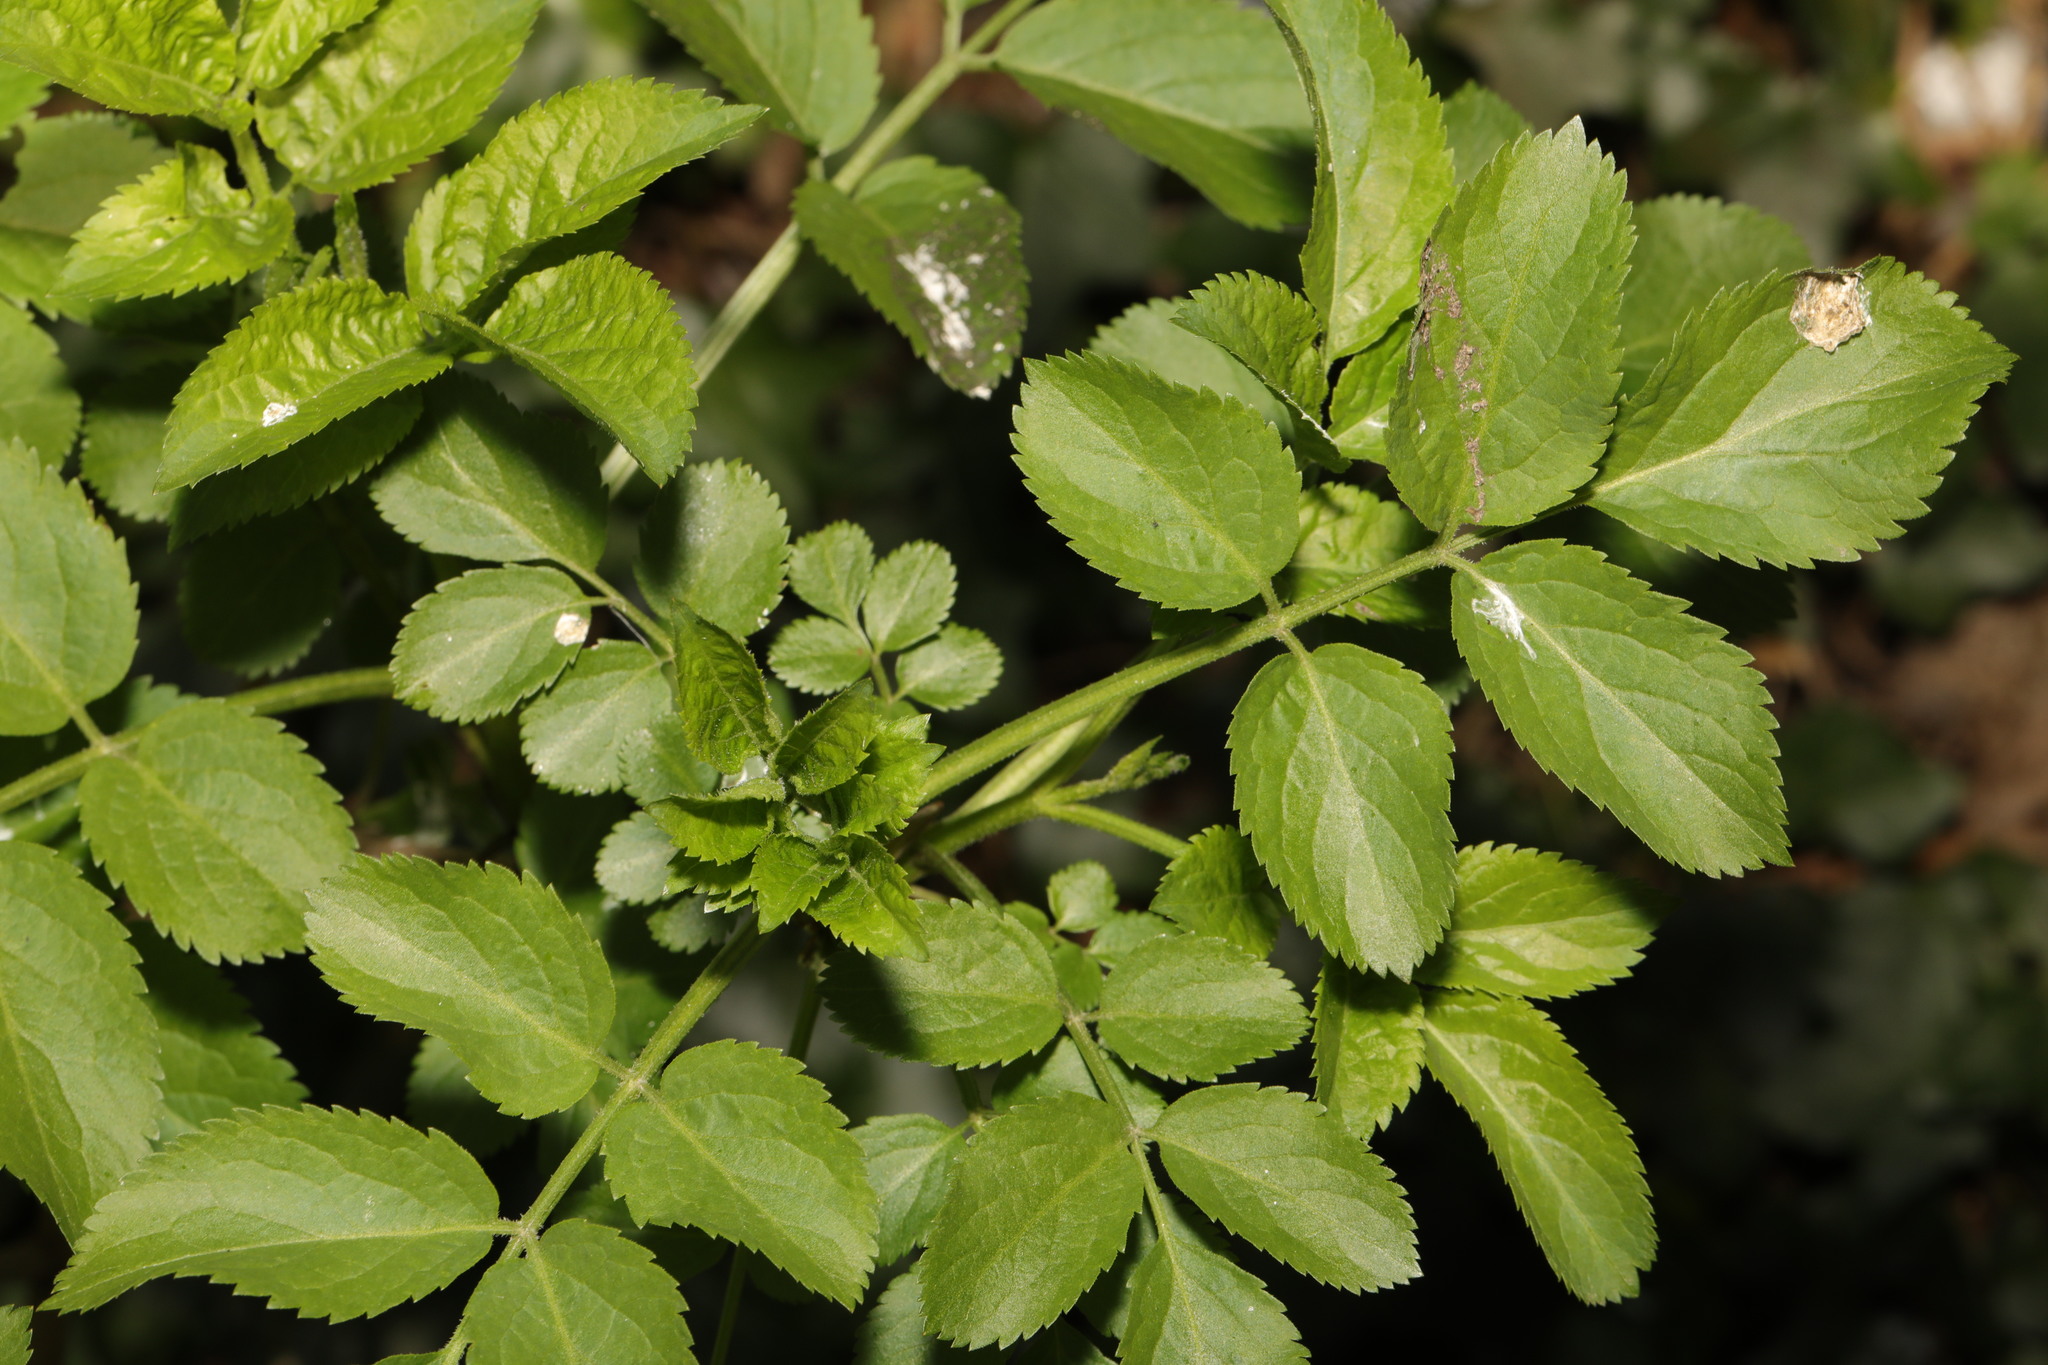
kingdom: Plantae
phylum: Tracheophyta
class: Magnoliopsida
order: Dipsacales
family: Viburnaceae
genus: Sambucus
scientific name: Sambucus nigra
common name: Elder
